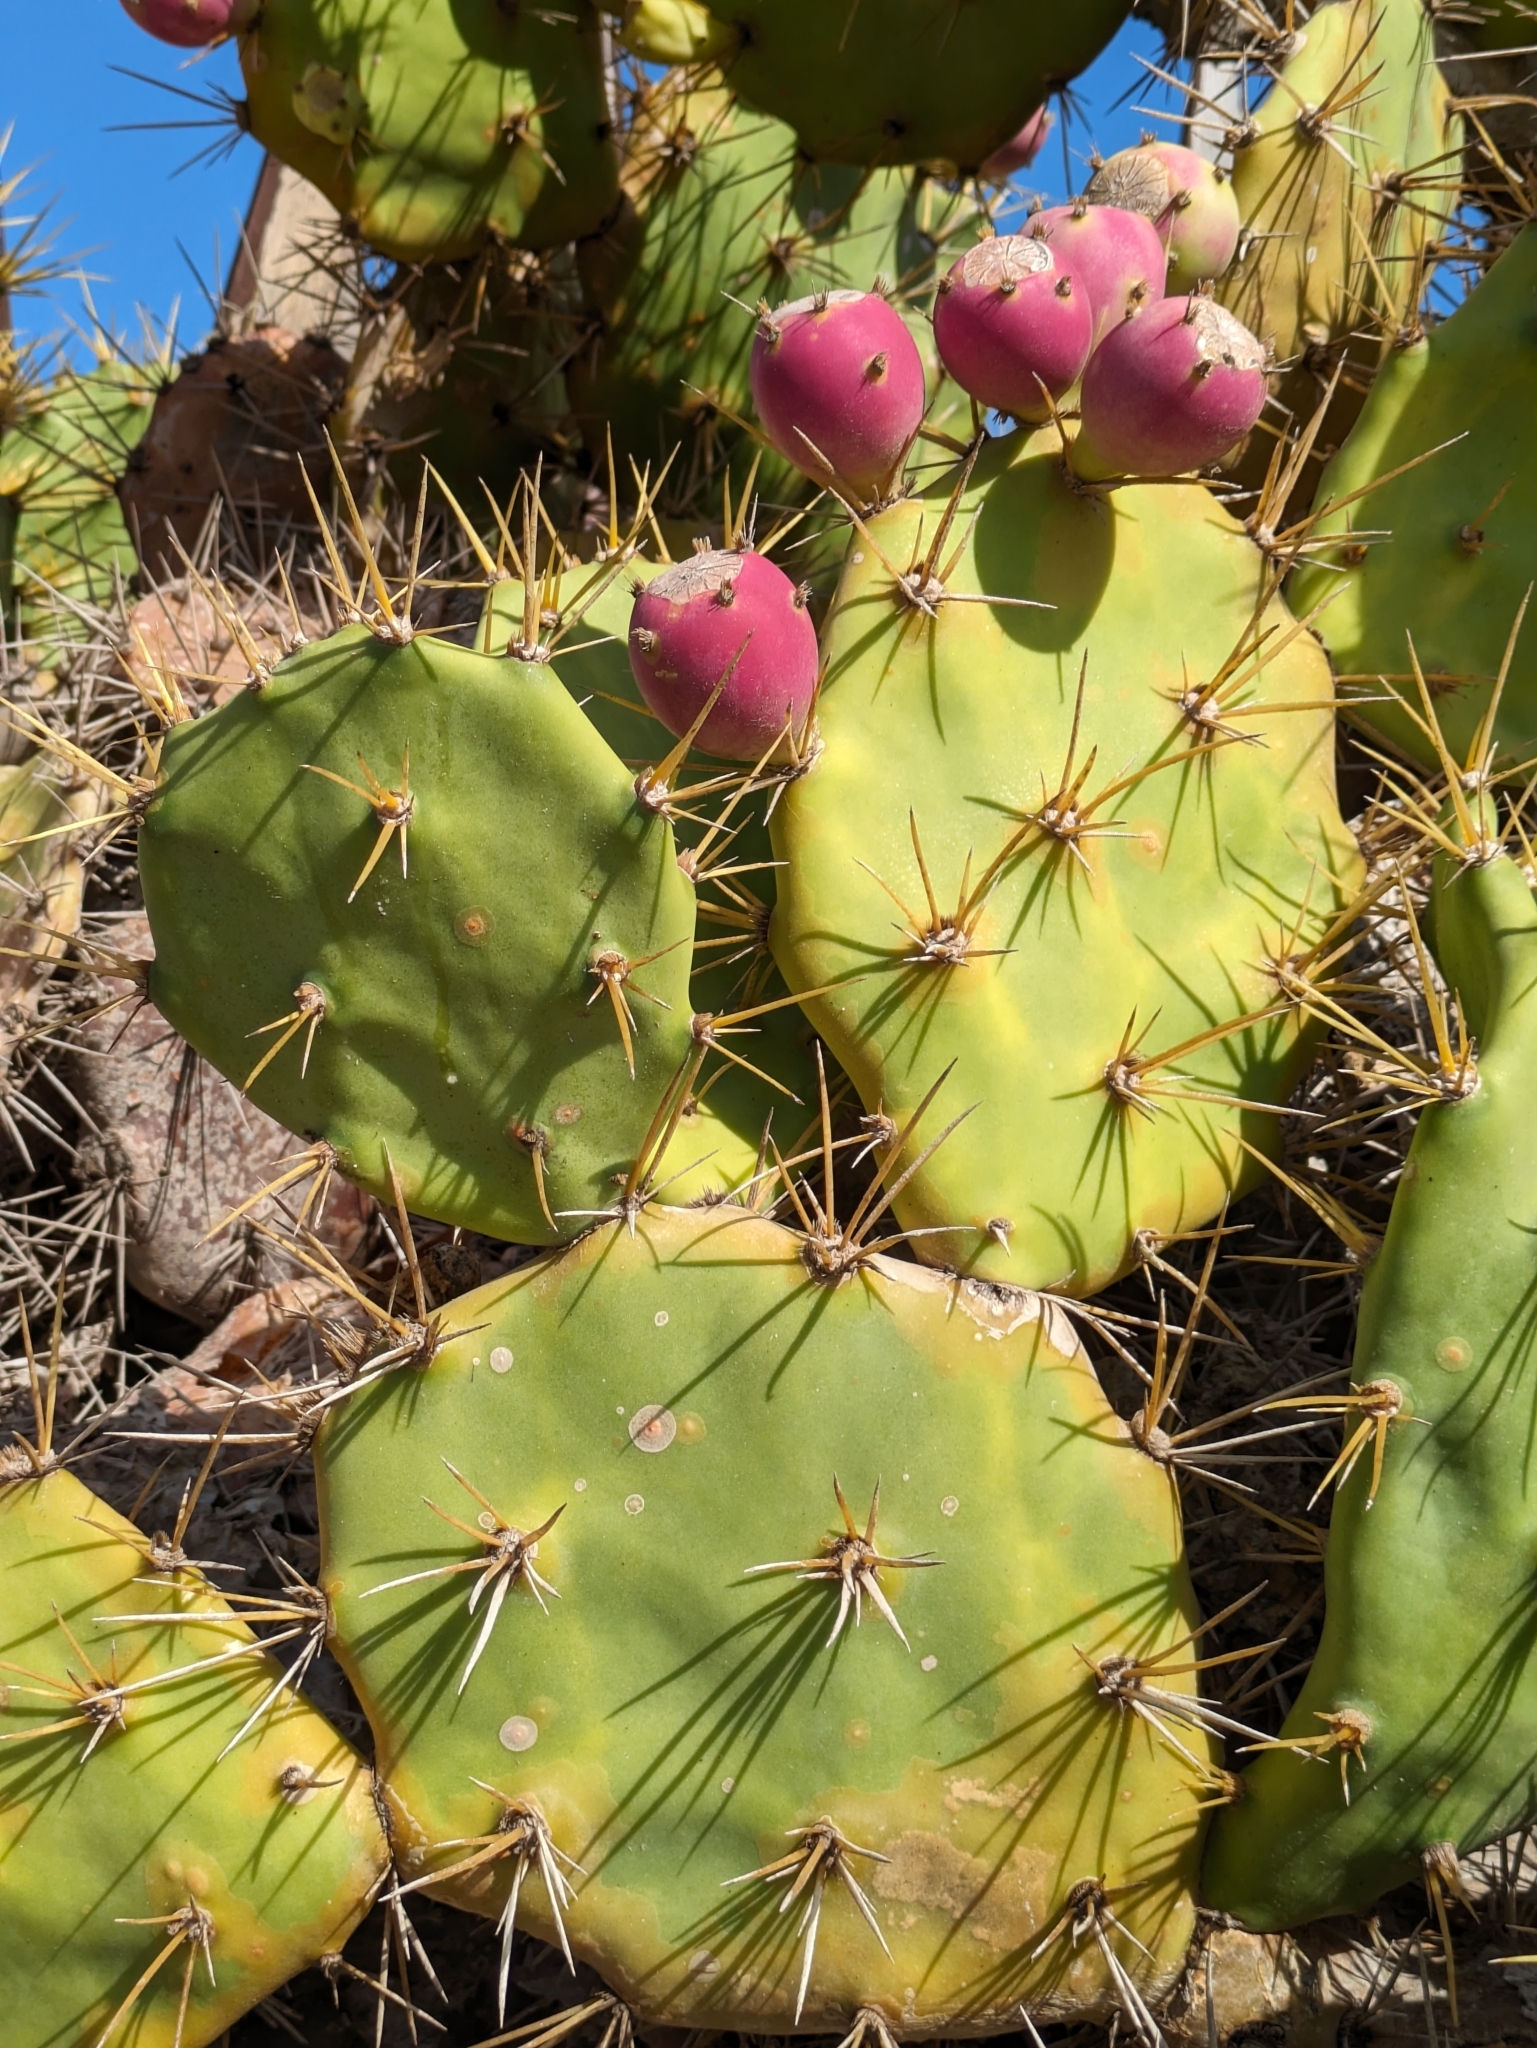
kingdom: Plantae
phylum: Tracheophyta
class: Magnoliopsida
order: Caryophyllales
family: Cactaceae
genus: Opuntia
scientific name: Opuntia stricta
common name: Erect pricklypear
